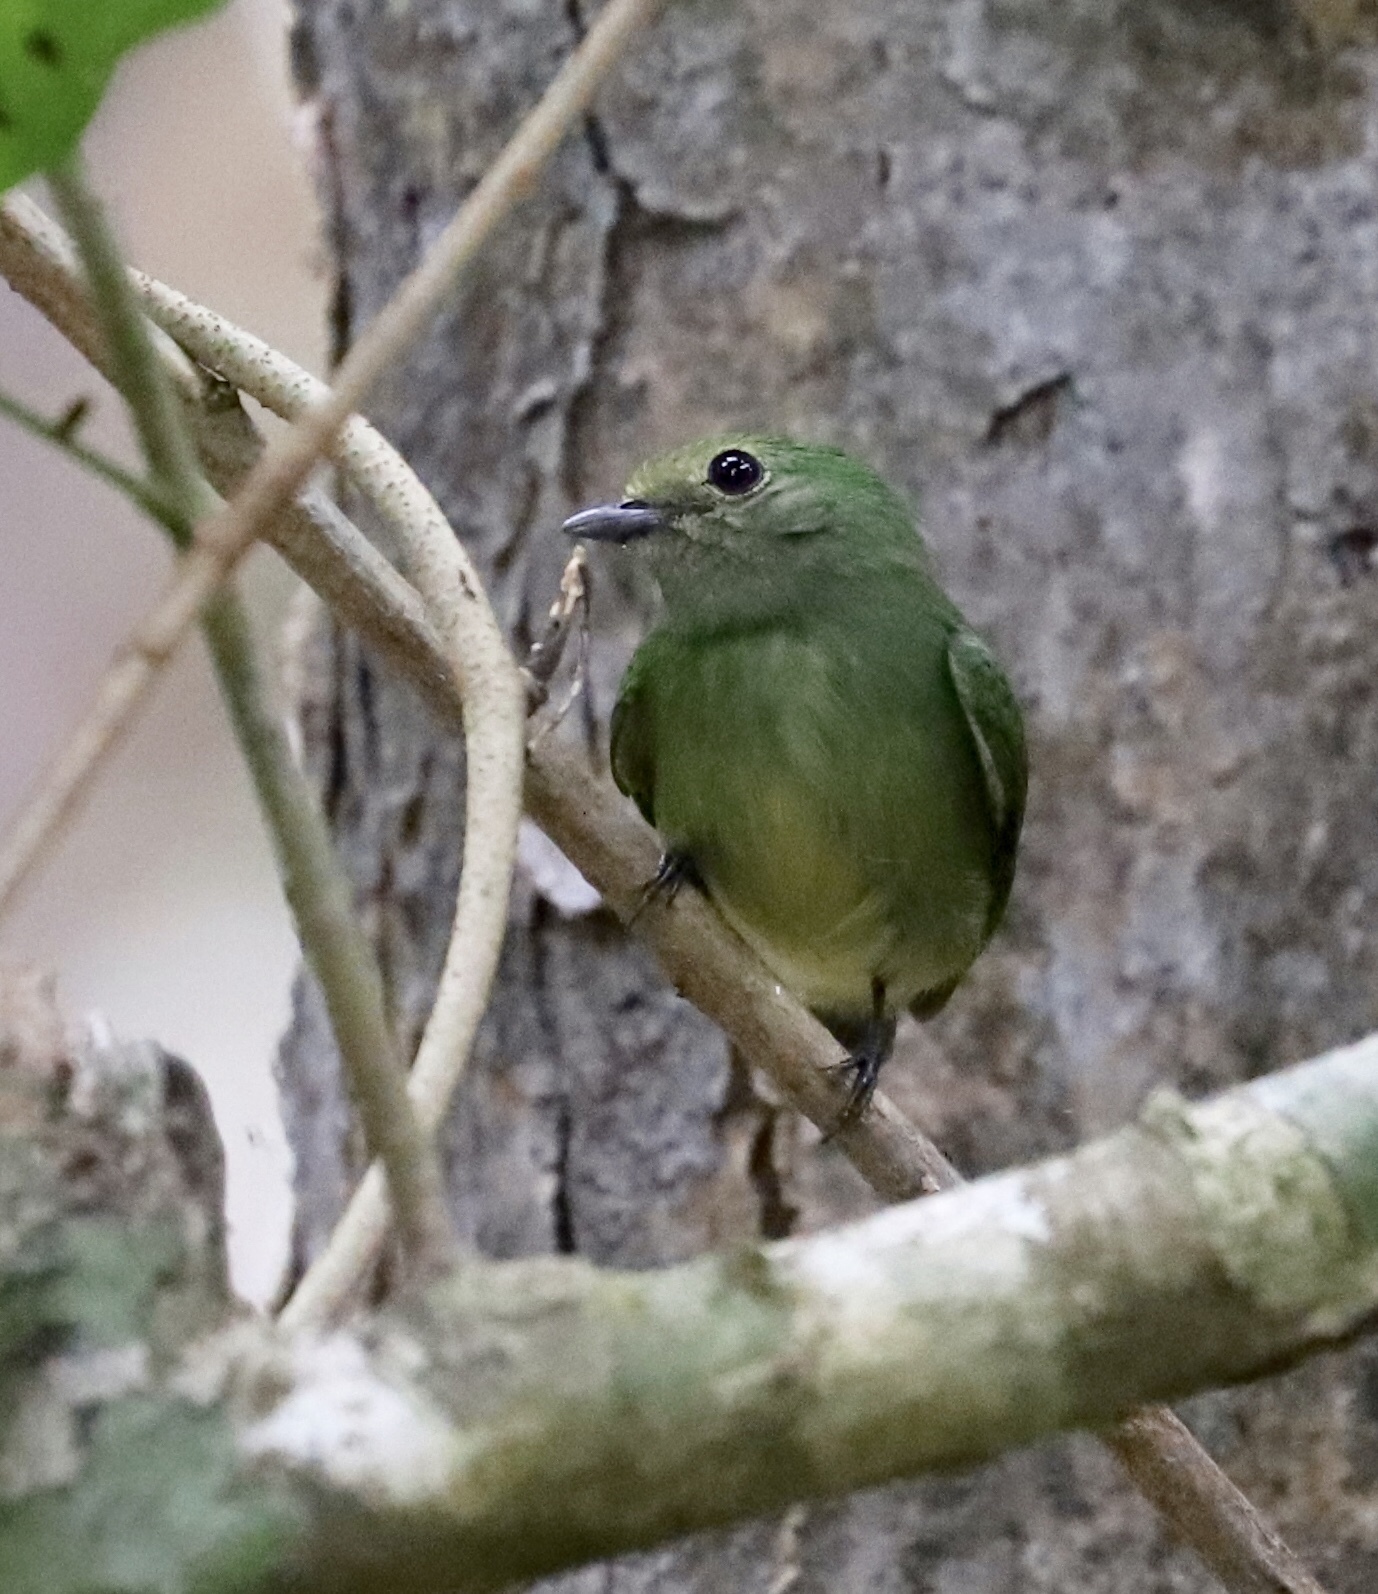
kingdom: Animalia
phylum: Chordata
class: Aves
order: Passeriformes
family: Pipridae
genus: Lepidothrix
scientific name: Lepidothrix coronata
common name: Blue-crowned manakin
